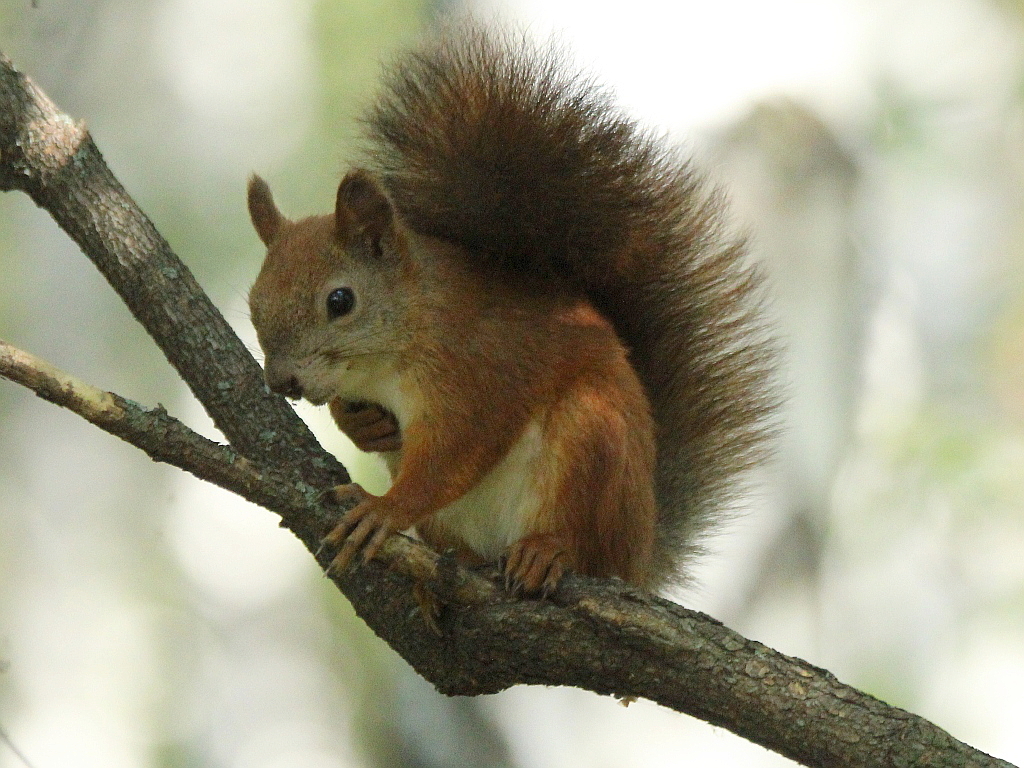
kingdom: Animalia
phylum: Chordata
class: Mammalia
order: Rodentia
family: Sciuridae
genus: Sciurus
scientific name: Sciurus vulgaris
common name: Eurasian red squirrel
